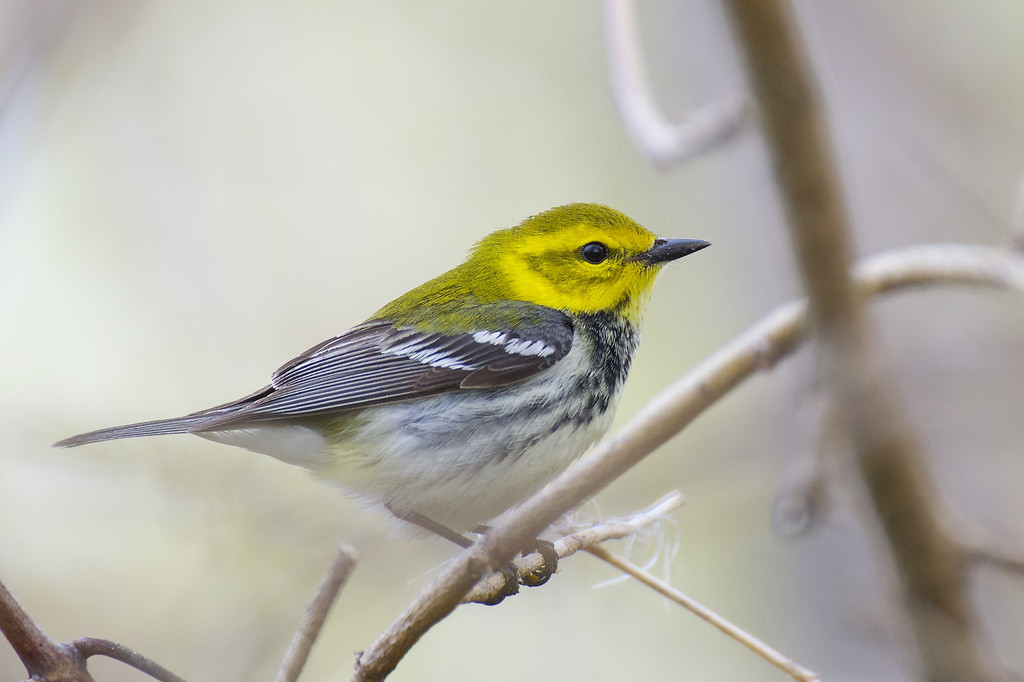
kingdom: Animalia
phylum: Chordata
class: Aves
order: Passeriformes
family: Parulidae
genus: Setophaga
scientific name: Setophaga virens
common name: Black-throated green warbler
